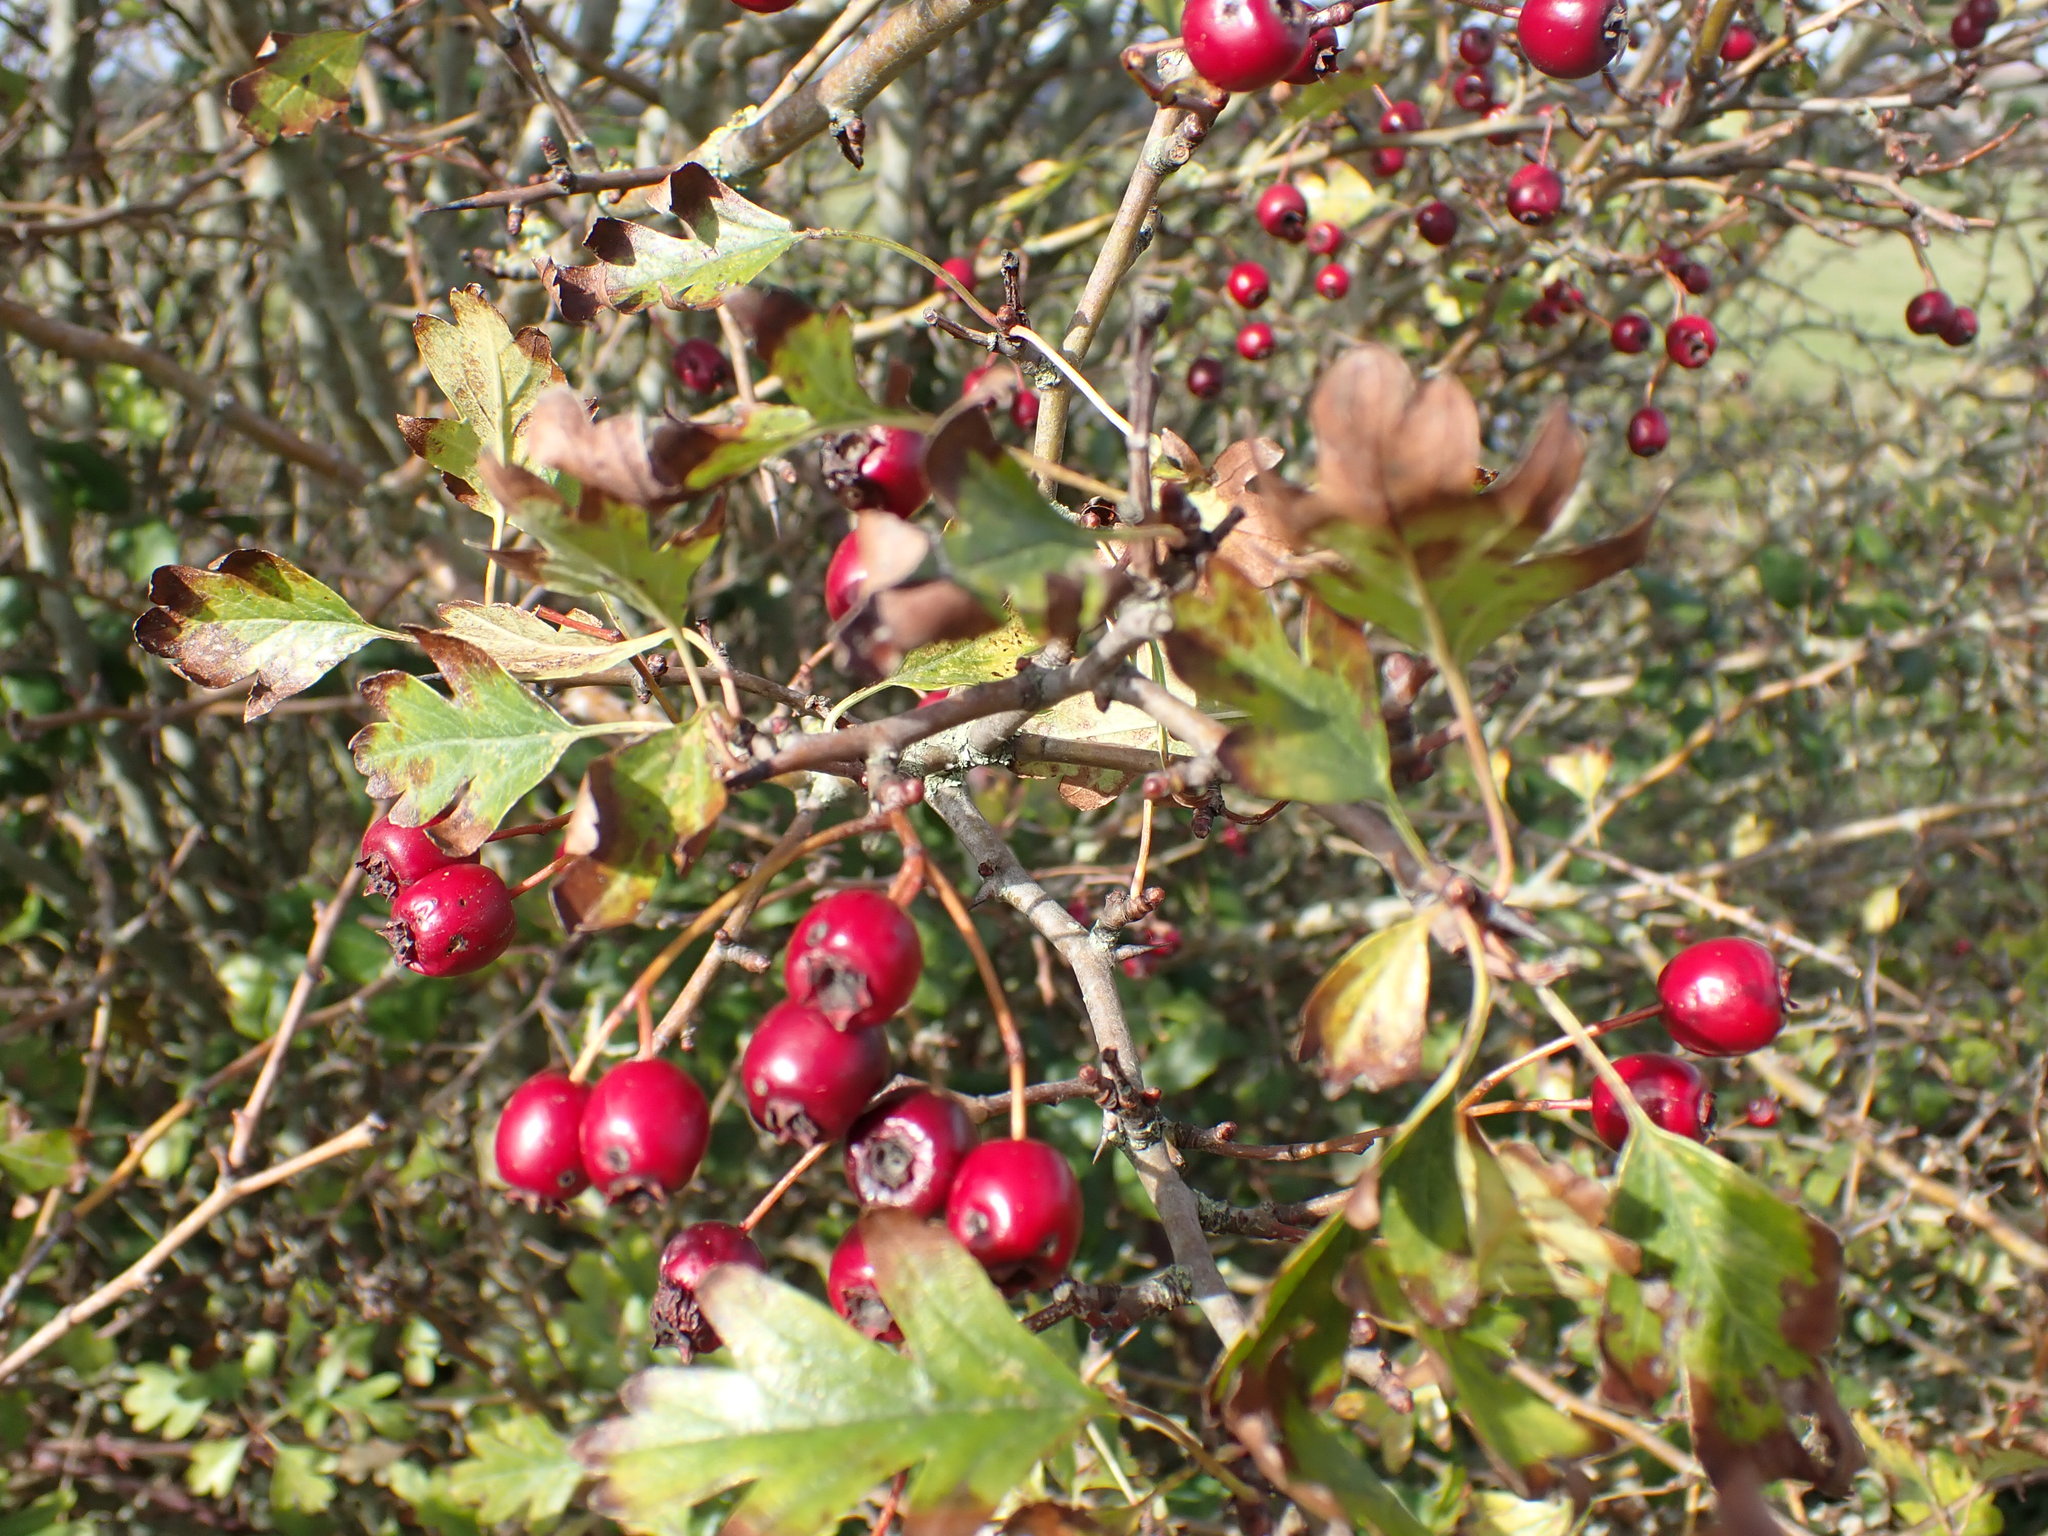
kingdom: Plantae
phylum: Tracheophyta
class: Magnoliopsida
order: Rosales
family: Rosaceae
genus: Crataegus
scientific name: Crataegus monogyna
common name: Hawthorn
